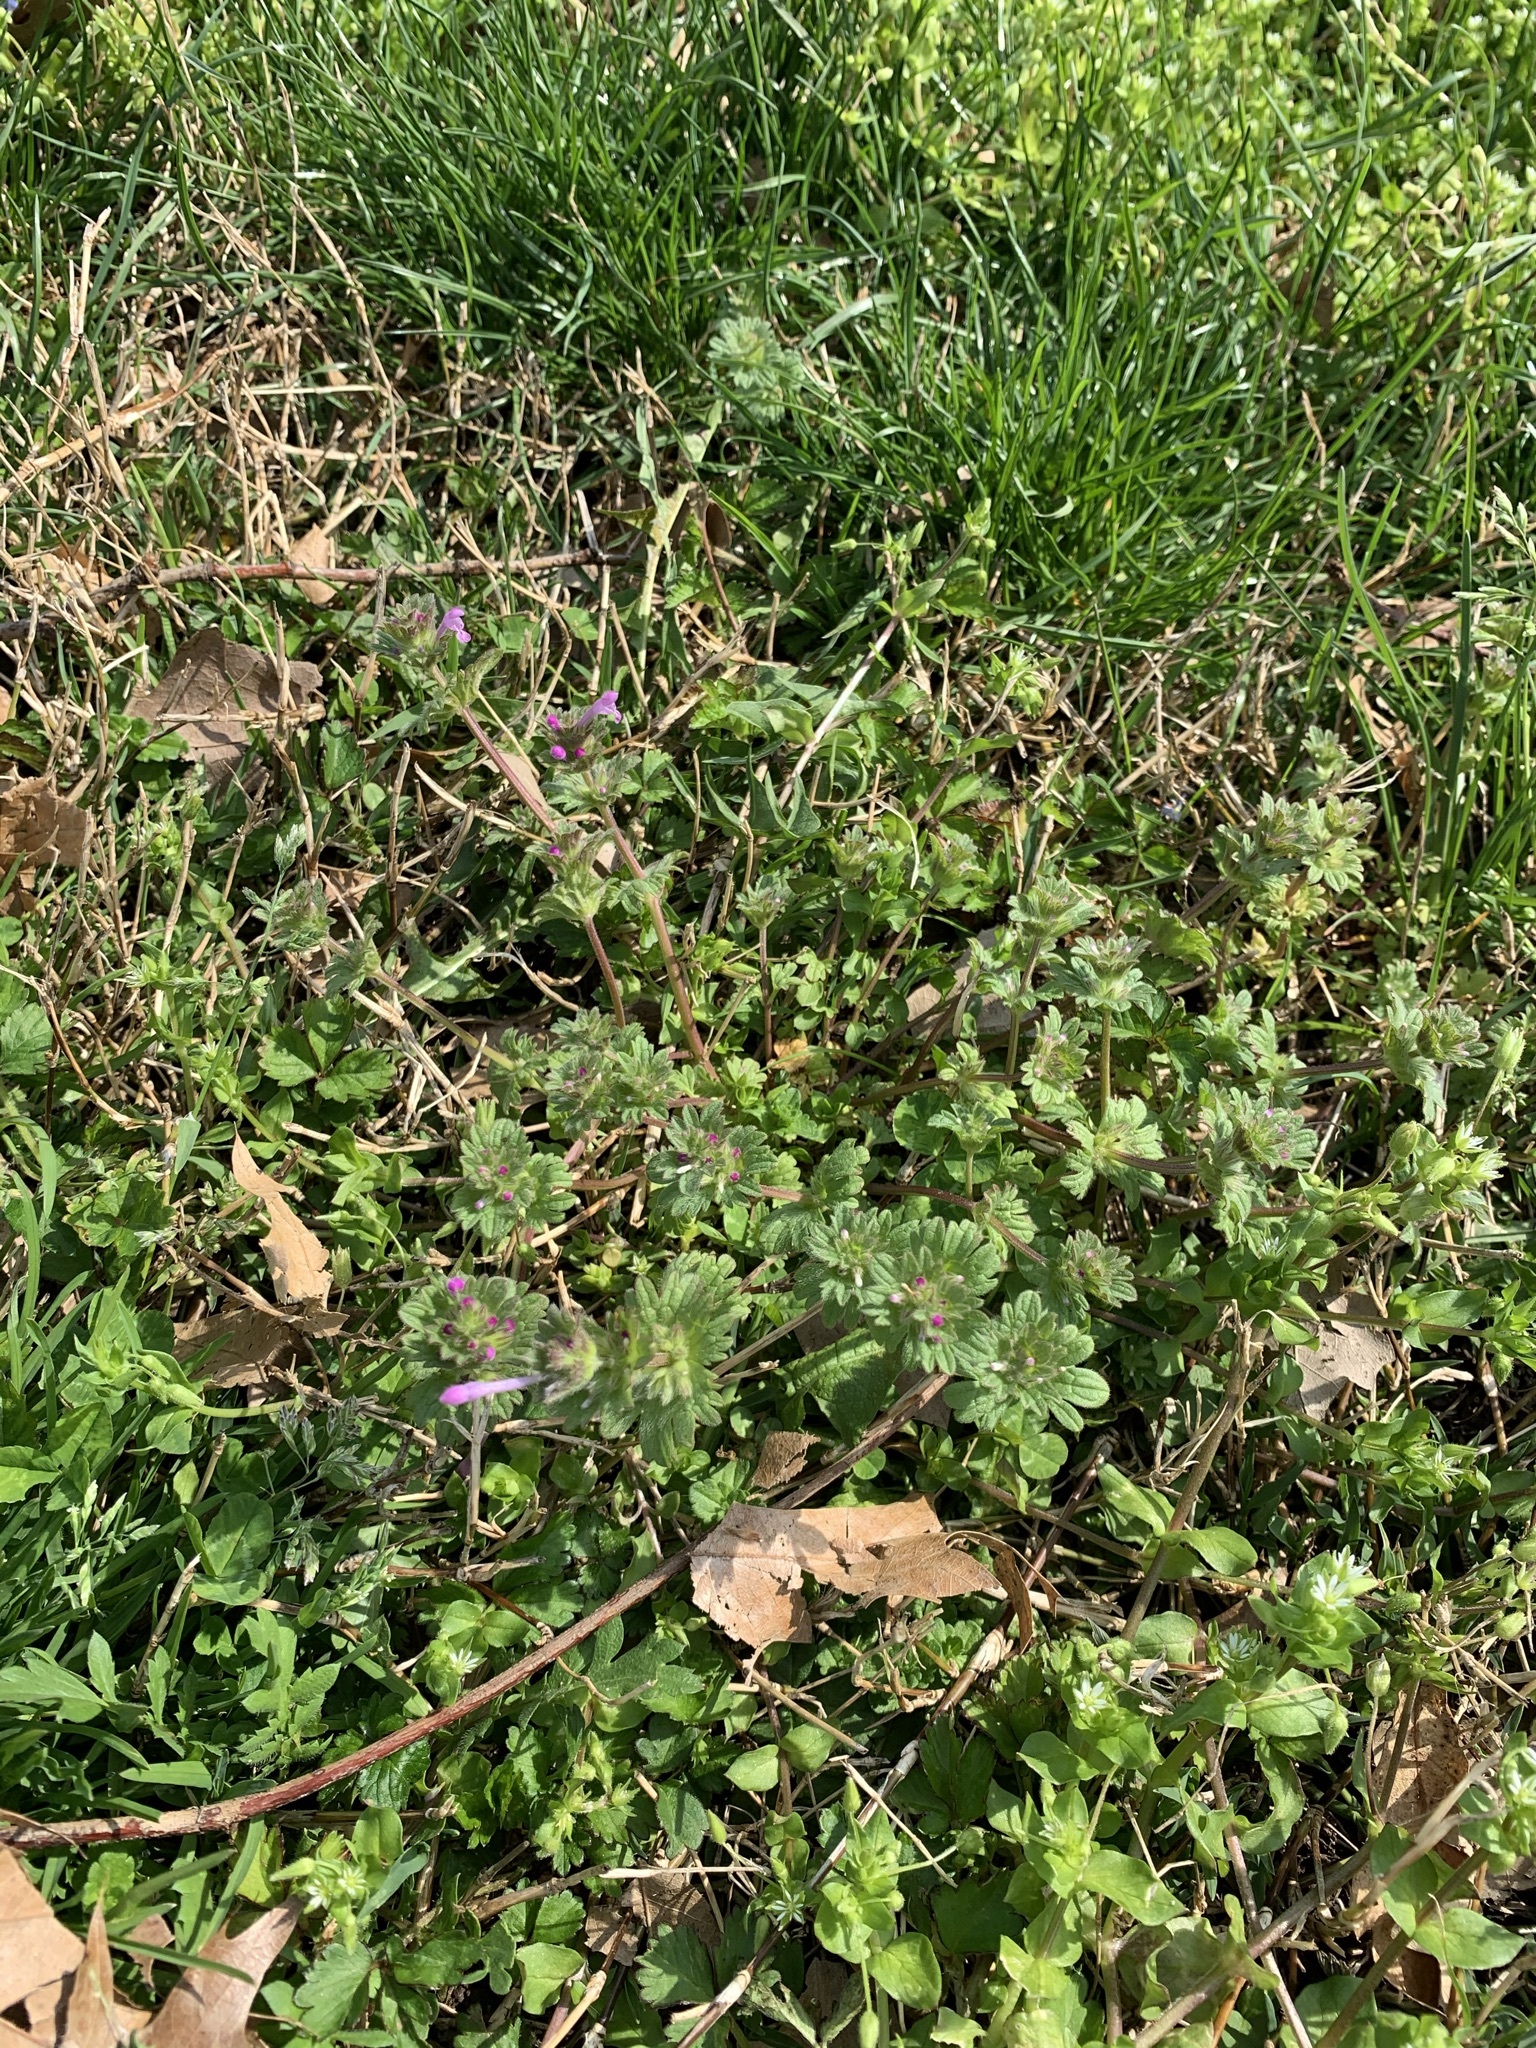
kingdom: Plantae
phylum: Tracheophyta
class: Magnoliopsida
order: Lamiales
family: Lamiaceae
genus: Lamium
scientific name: Lamium amplexicaule
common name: Henbit dead-nettle
